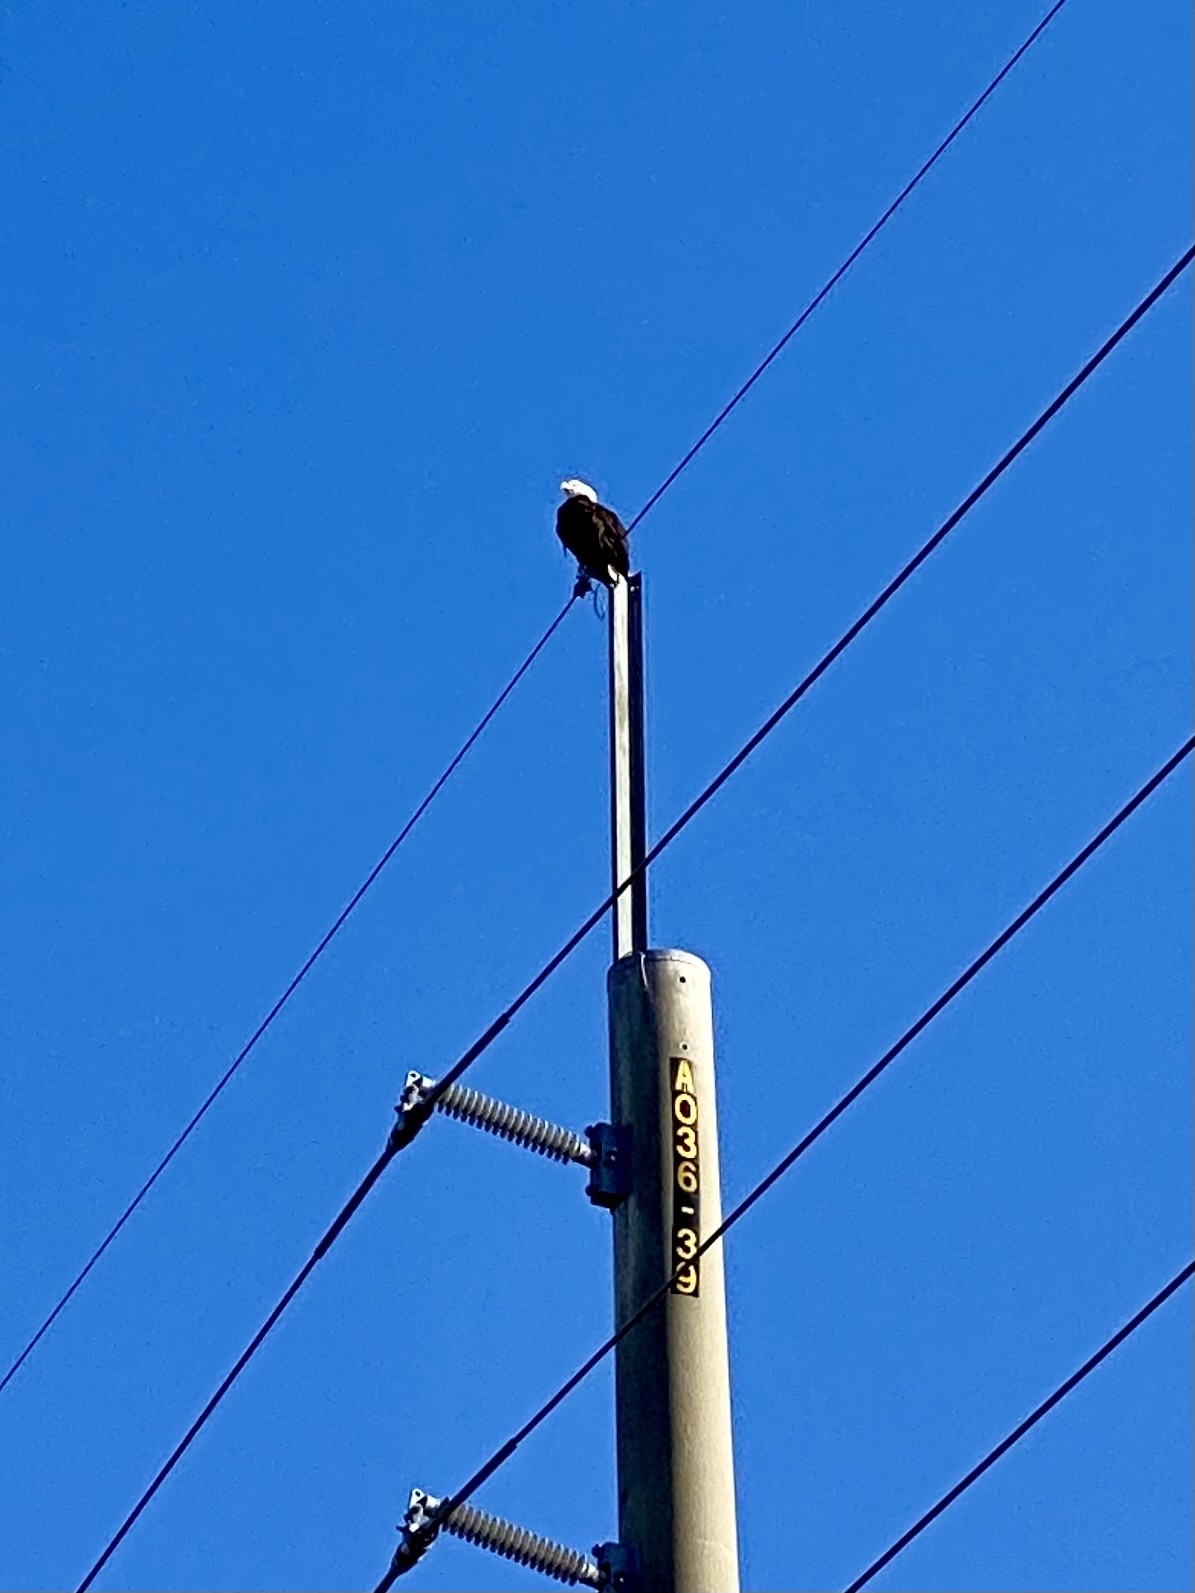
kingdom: Animalia
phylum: Chordata
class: Aves
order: Accipitriformes
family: Accipitridae
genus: Haliaeetus
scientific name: Haliaeetus leucocephalus
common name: Bald eagle
